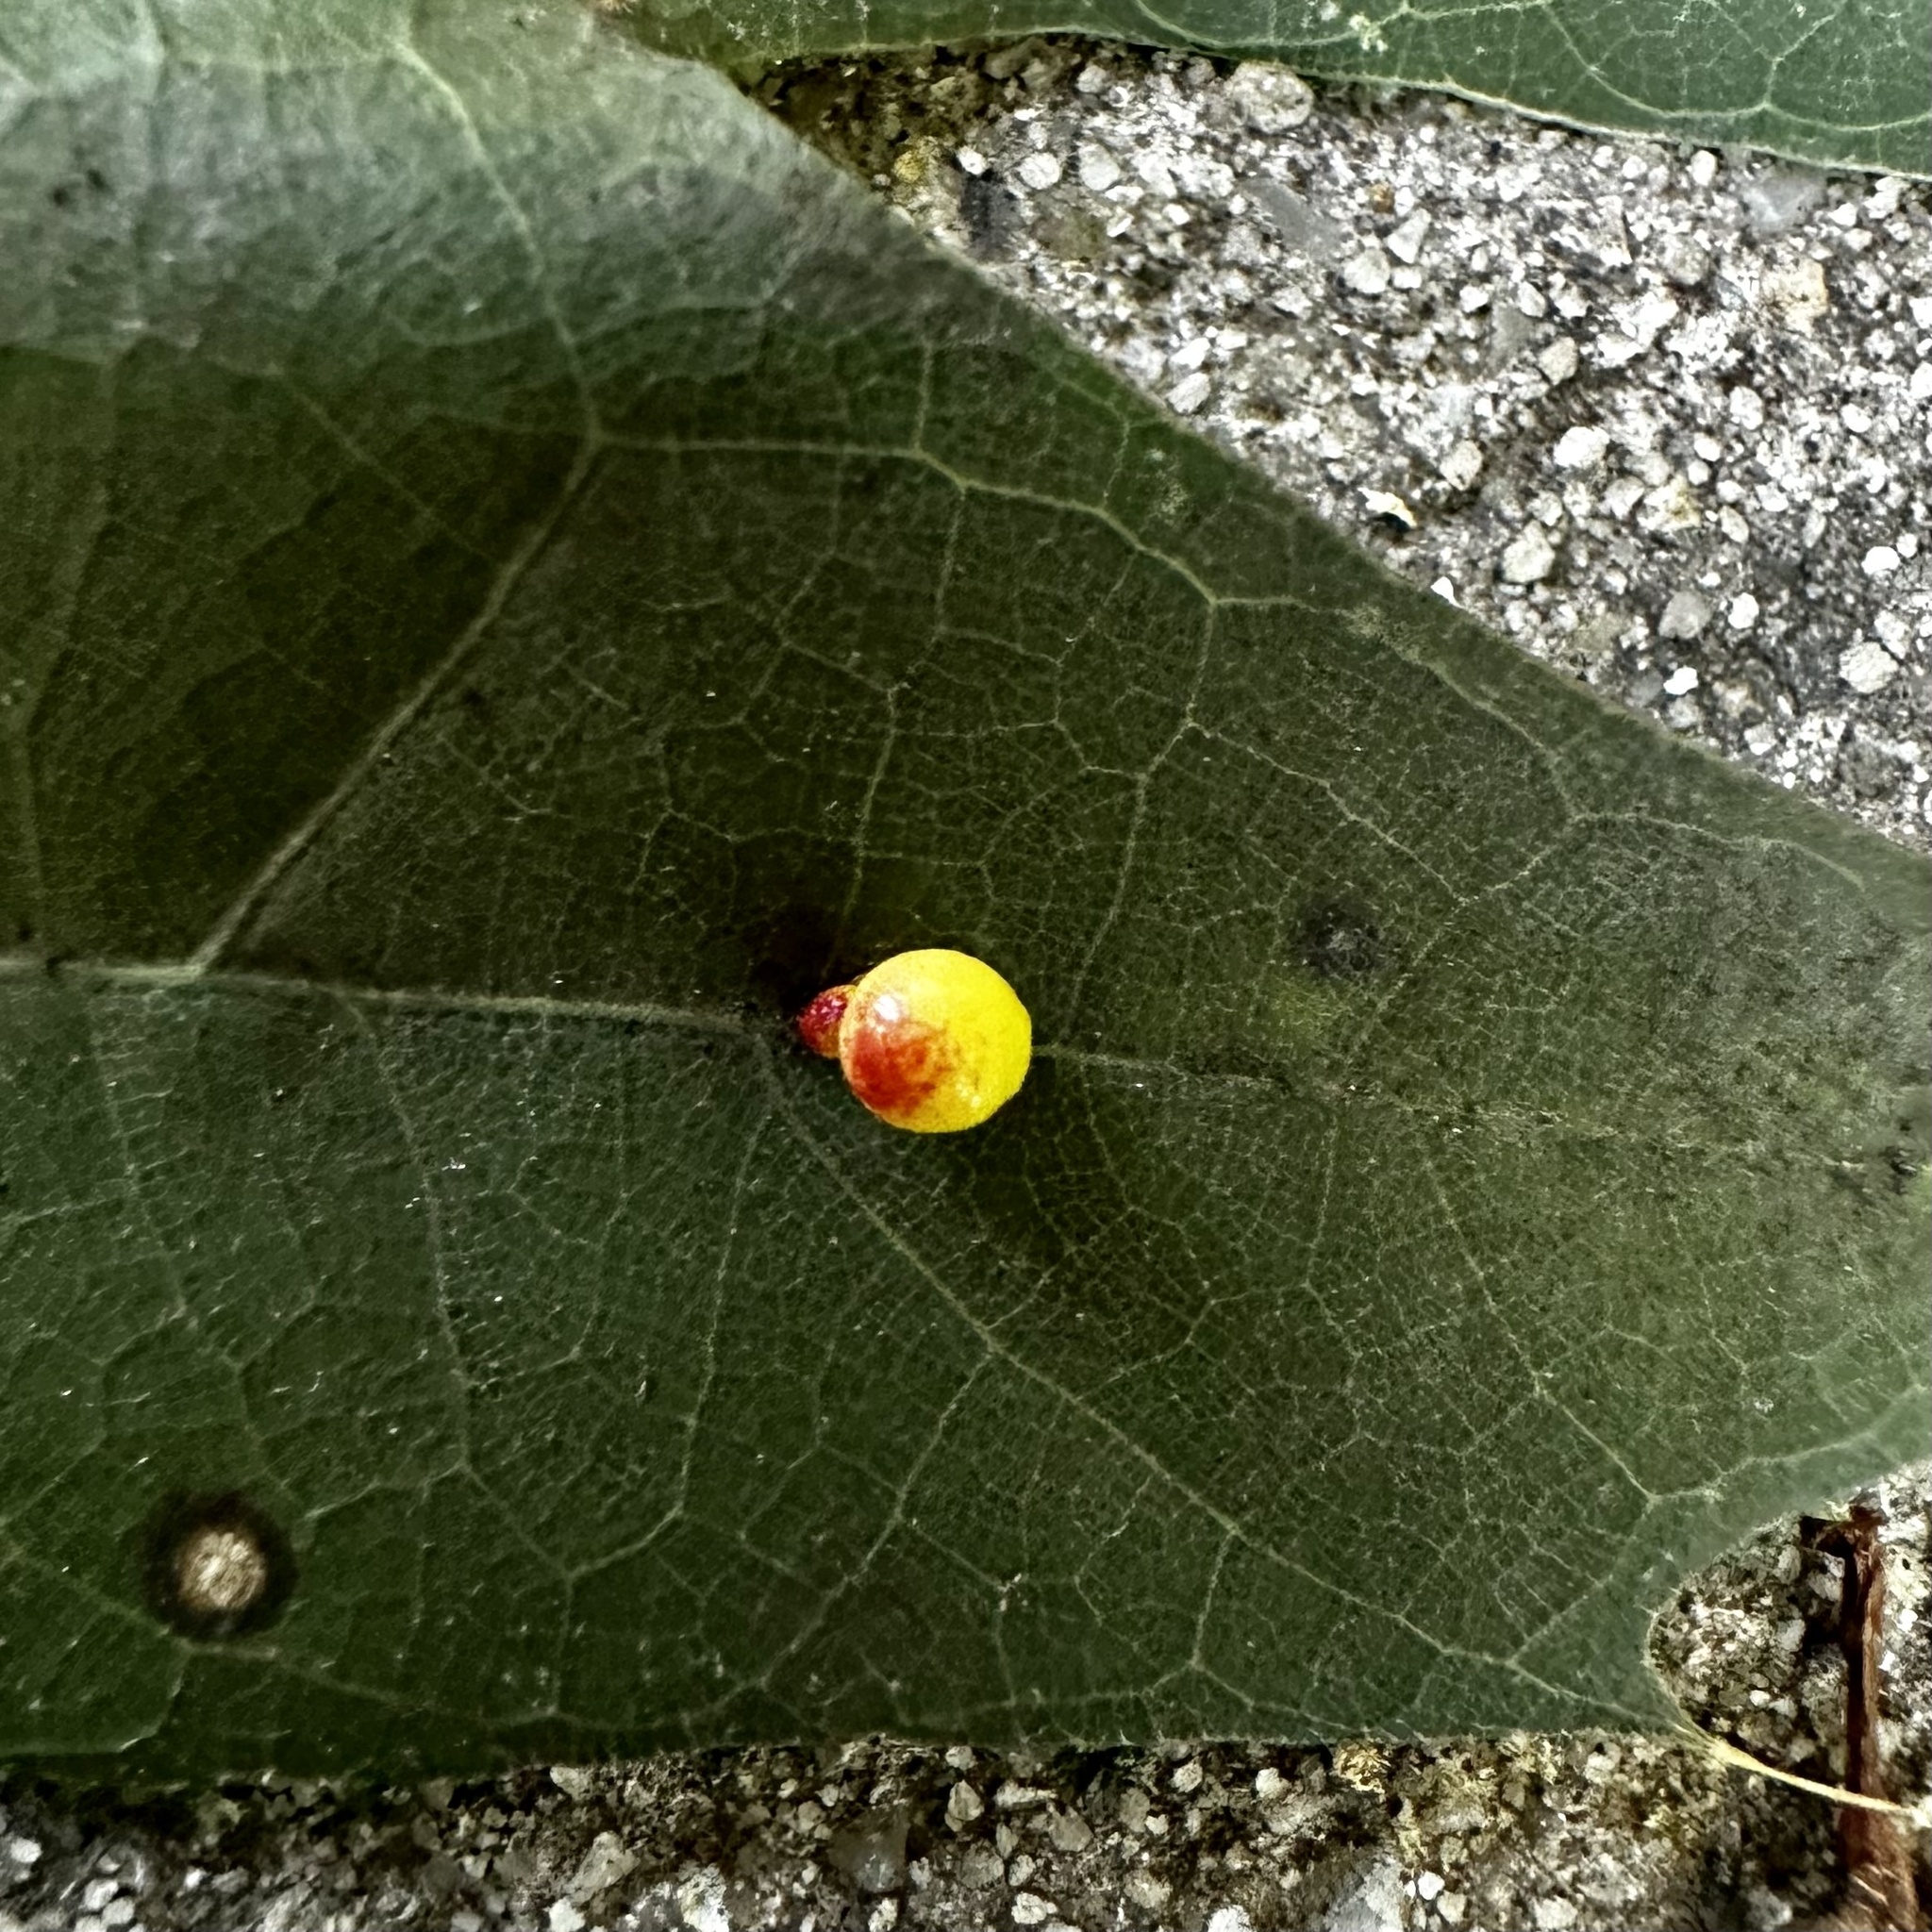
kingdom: Animalia
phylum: Arthropoda
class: Insecta
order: Hymenoptera
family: Cynipidae
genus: Zopheroteras
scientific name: Zopheroteras
